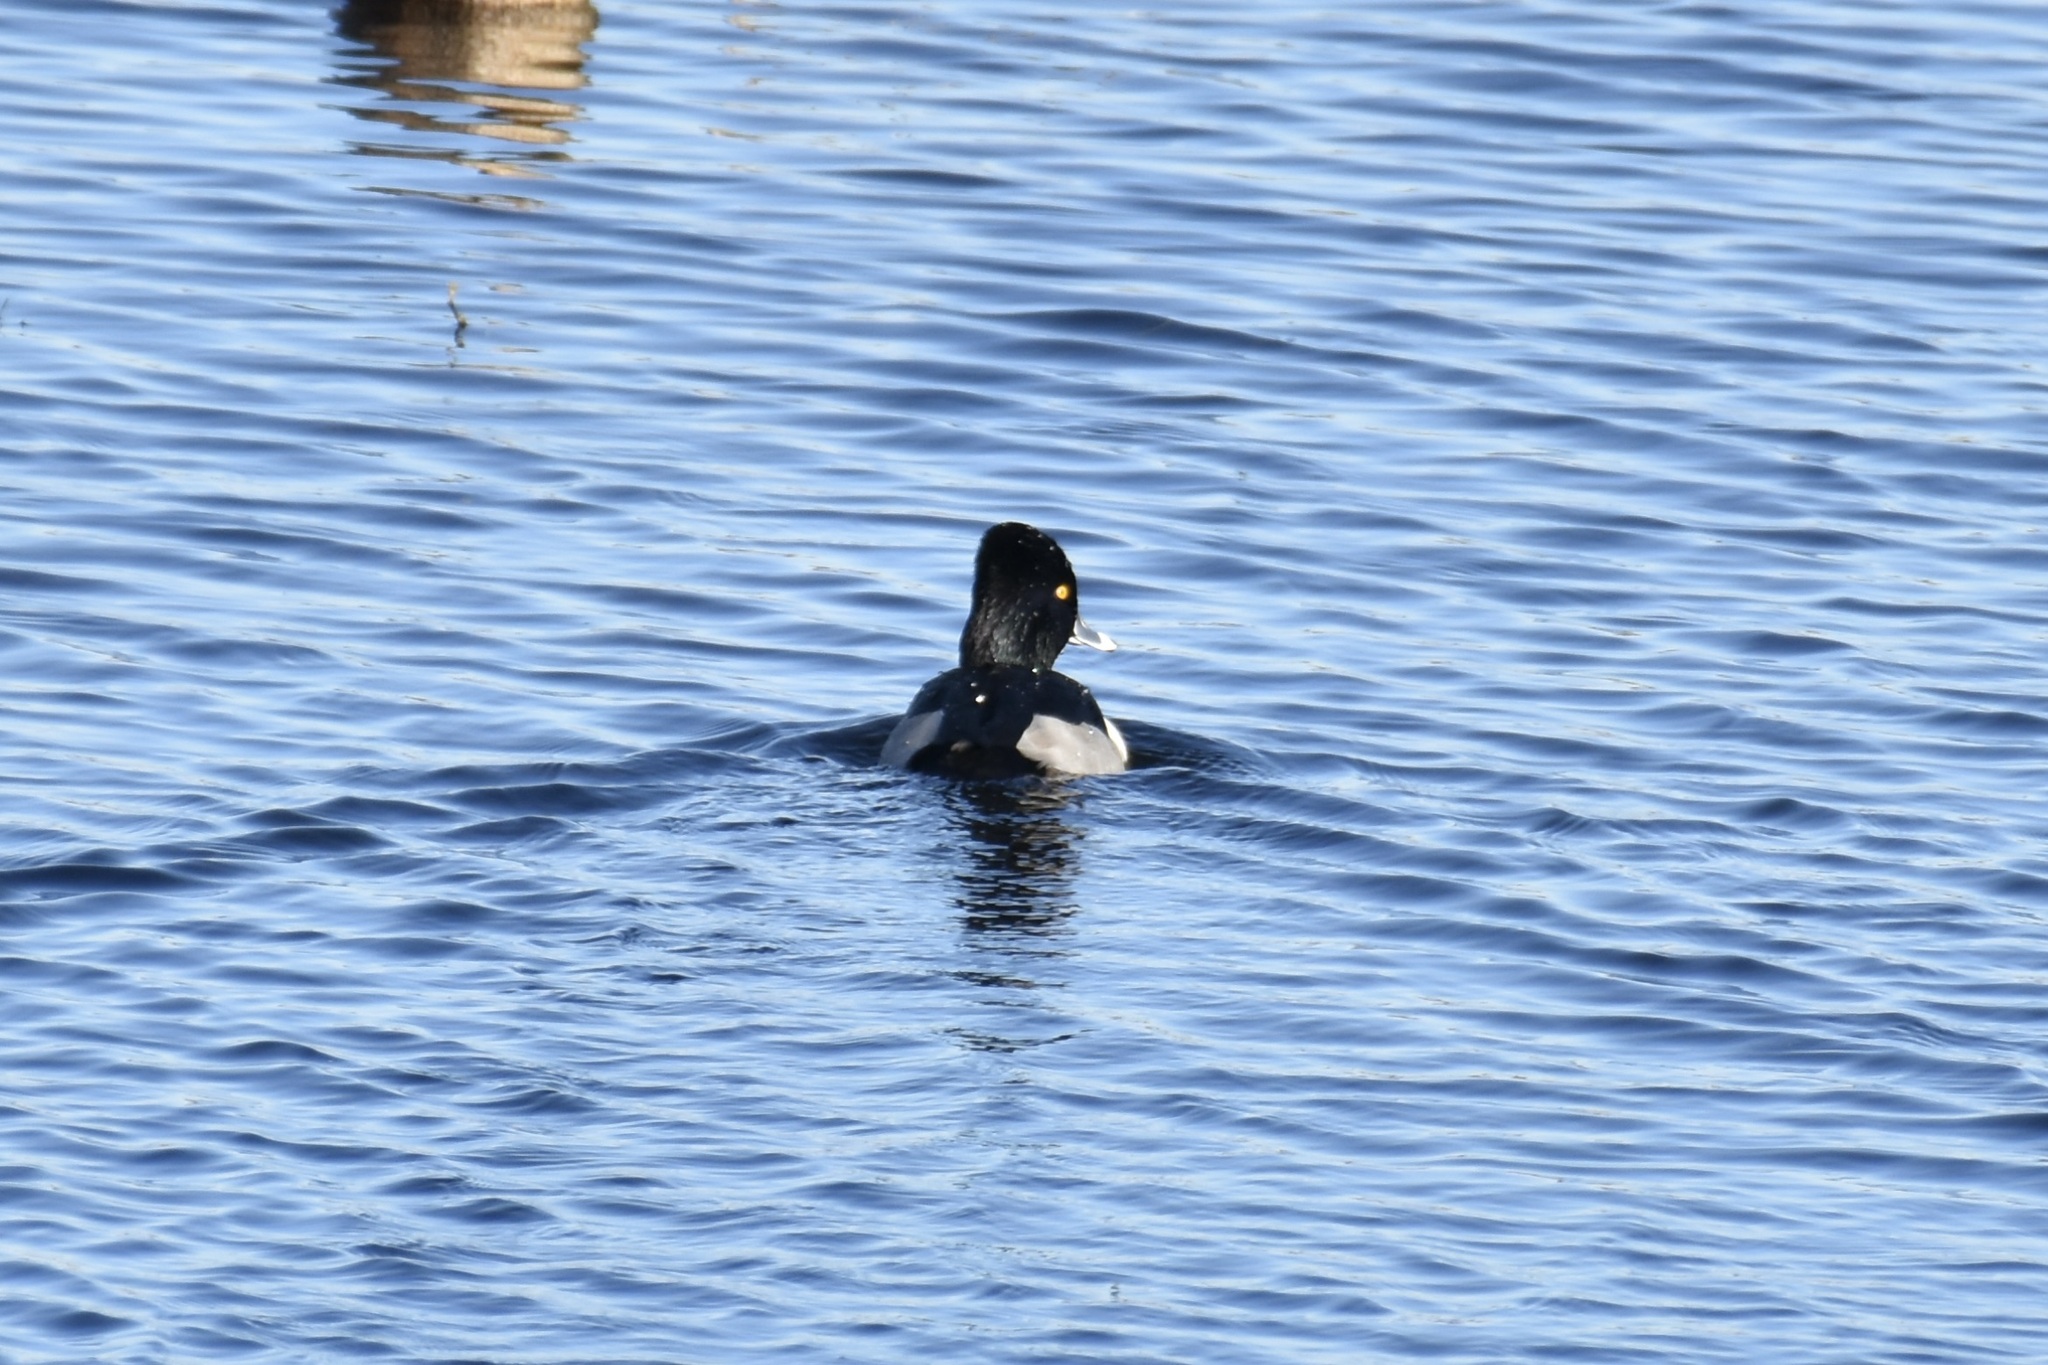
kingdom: Animalia
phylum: Chordata
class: Aves
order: Anseriformes
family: Anatidae
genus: Aythya
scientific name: Aythya collaris
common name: Ring-necked duck
